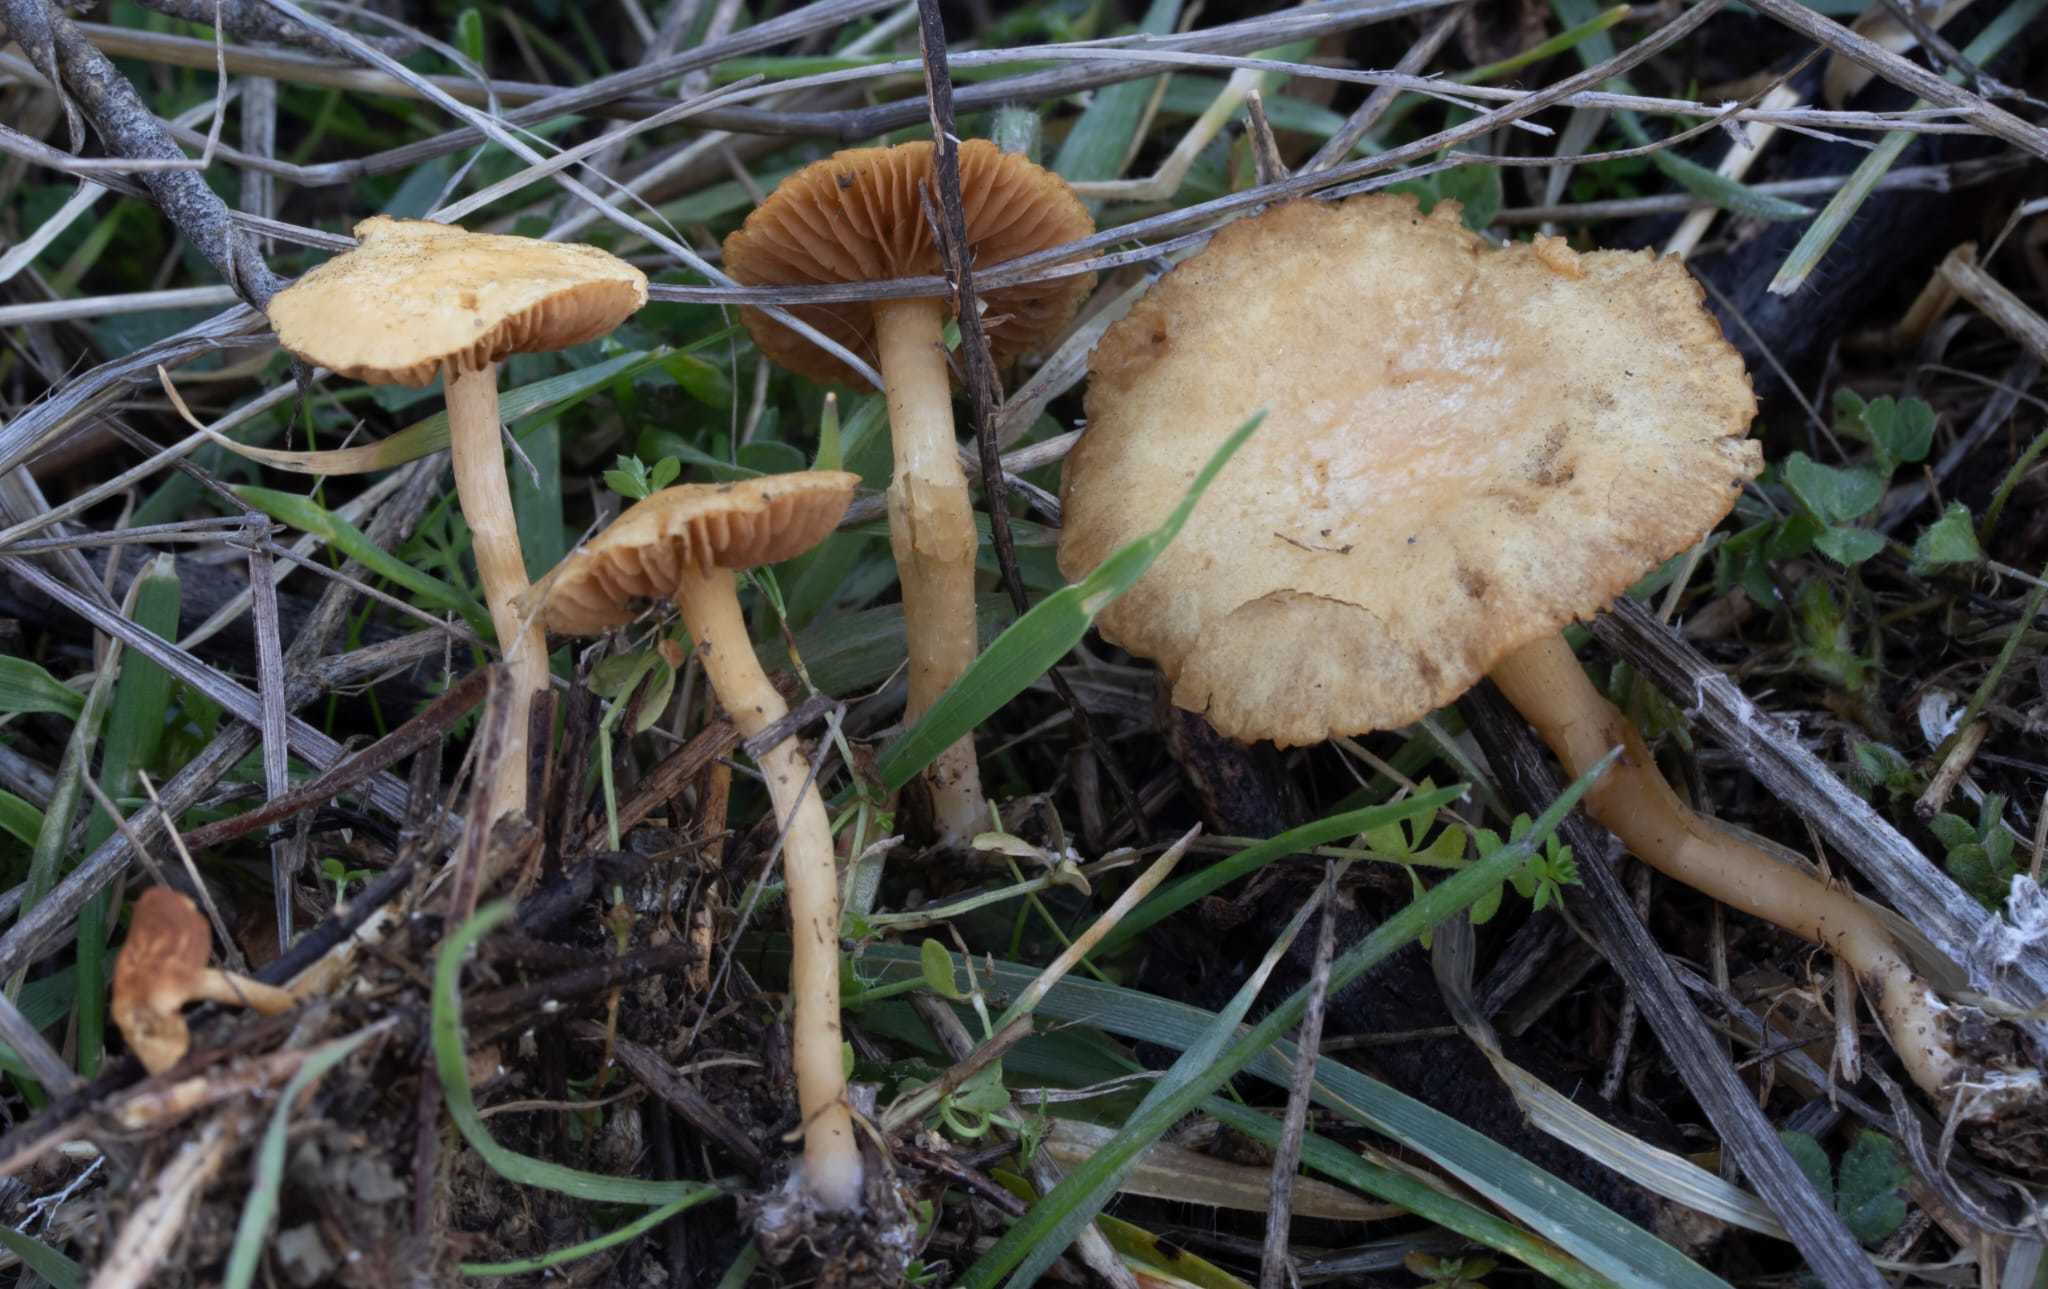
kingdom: Fungi
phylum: Basidiomycota
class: Agaricomycetes
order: Agaricales
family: Strophariaceae
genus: Agrocybe
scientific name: Agrocybe vervacti
